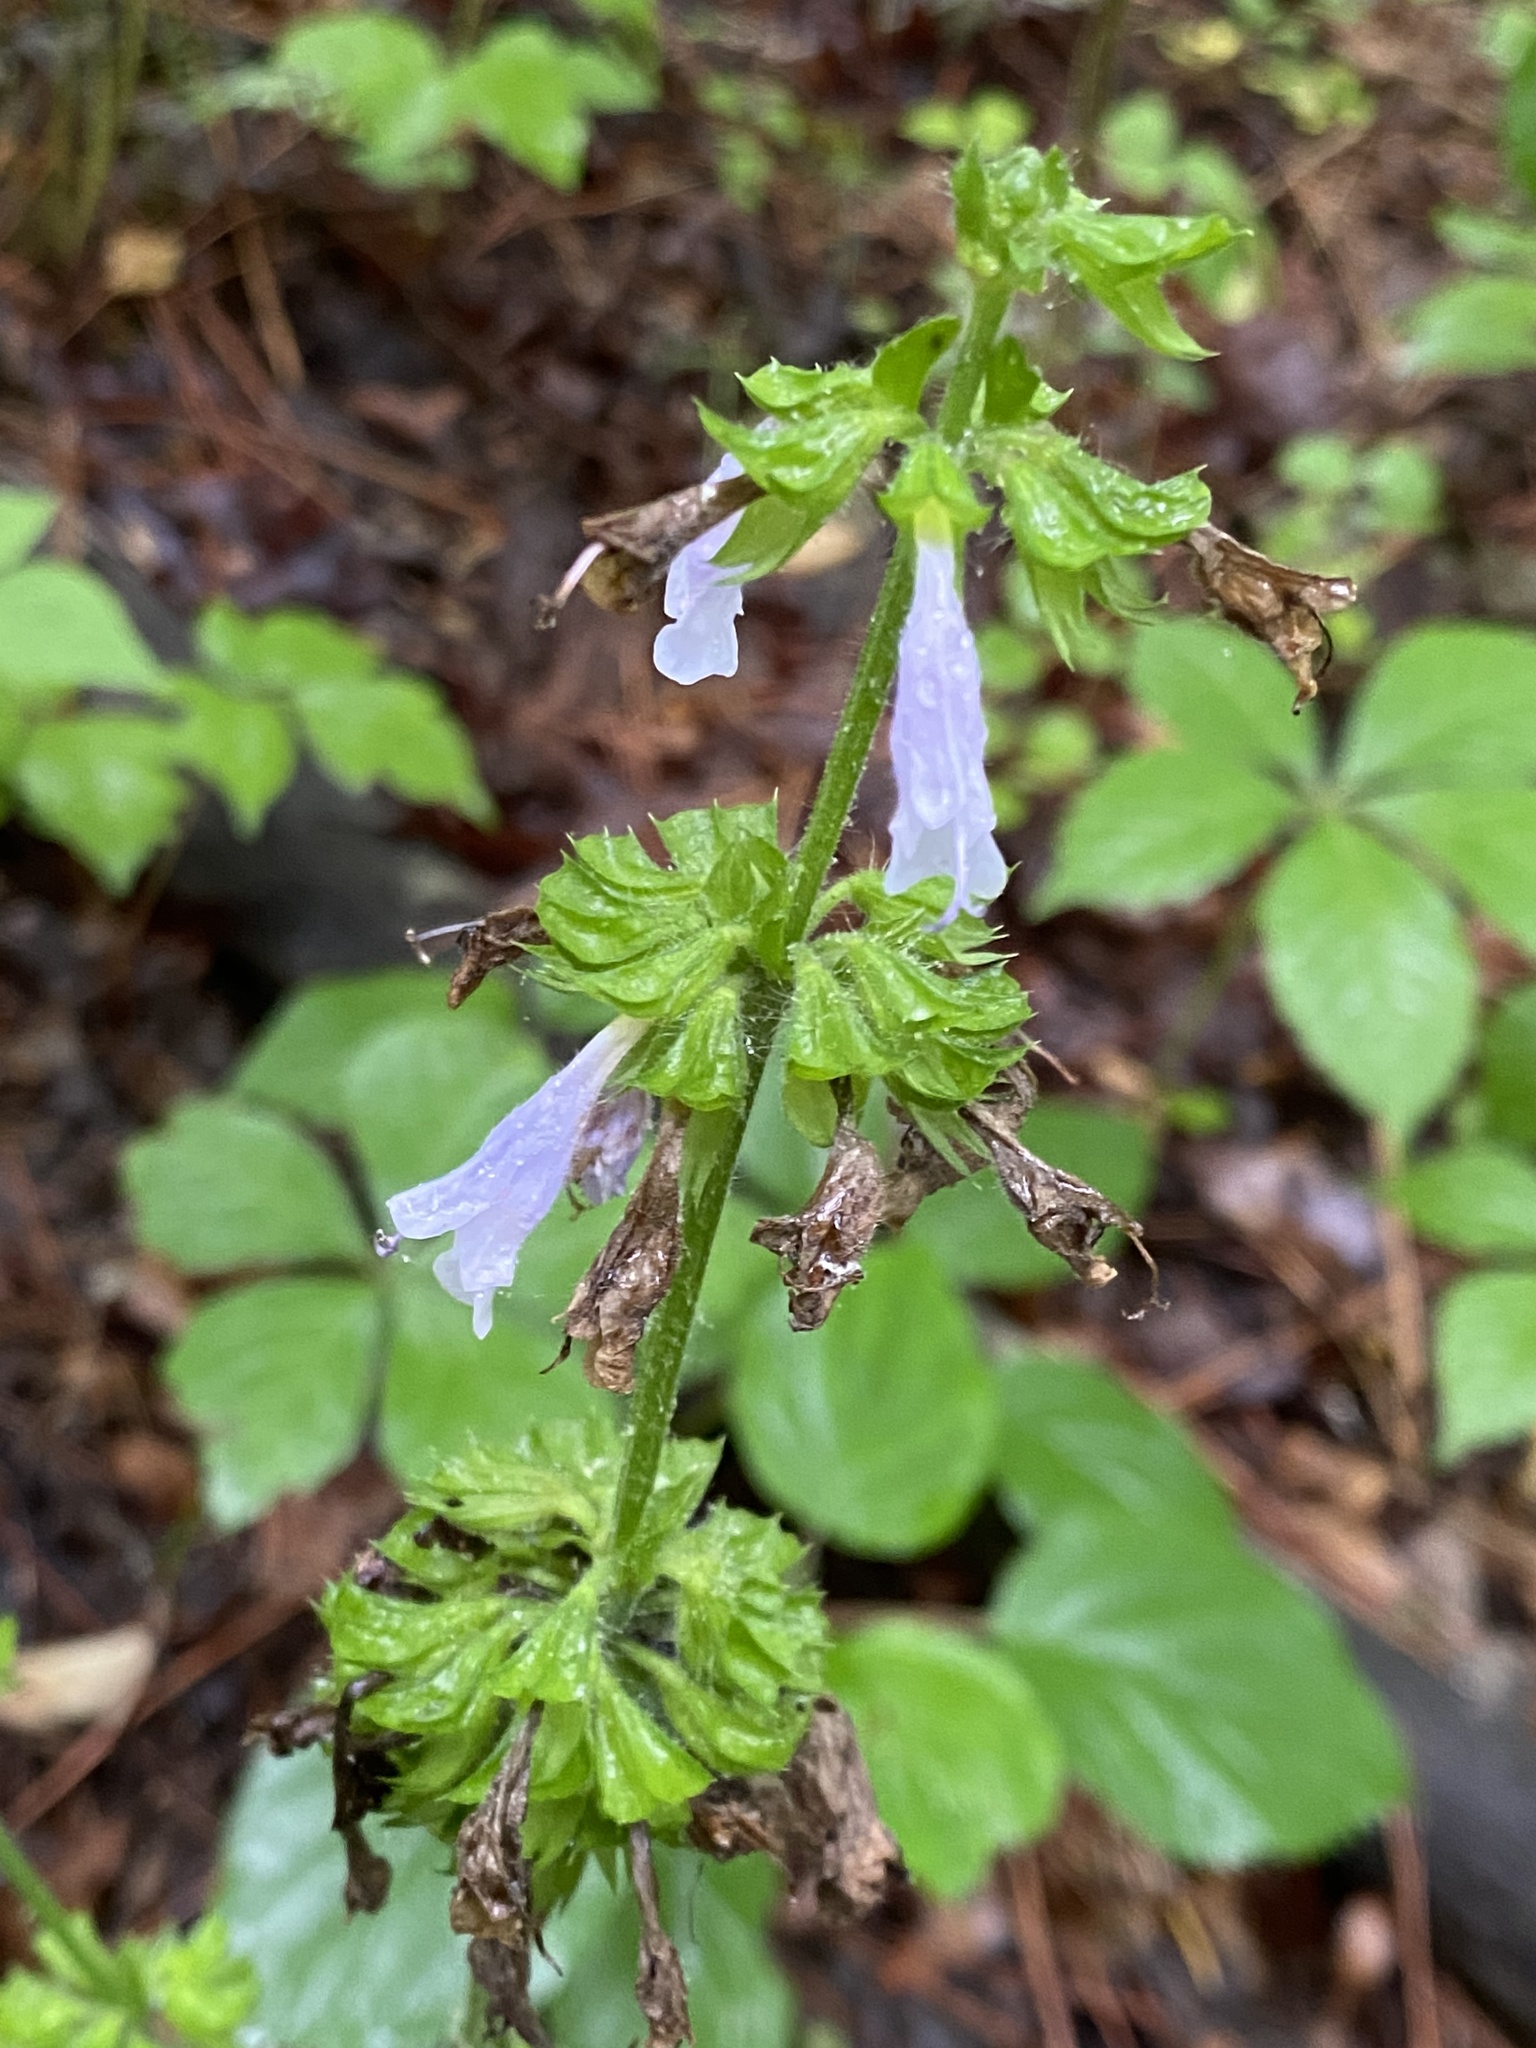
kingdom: Plantae
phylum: Tracheophyta
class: Magnoliopsida
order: Lamiales
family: Lamiaceae
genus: Salvia
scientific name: Salvia lyrata
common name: Cancerweed
